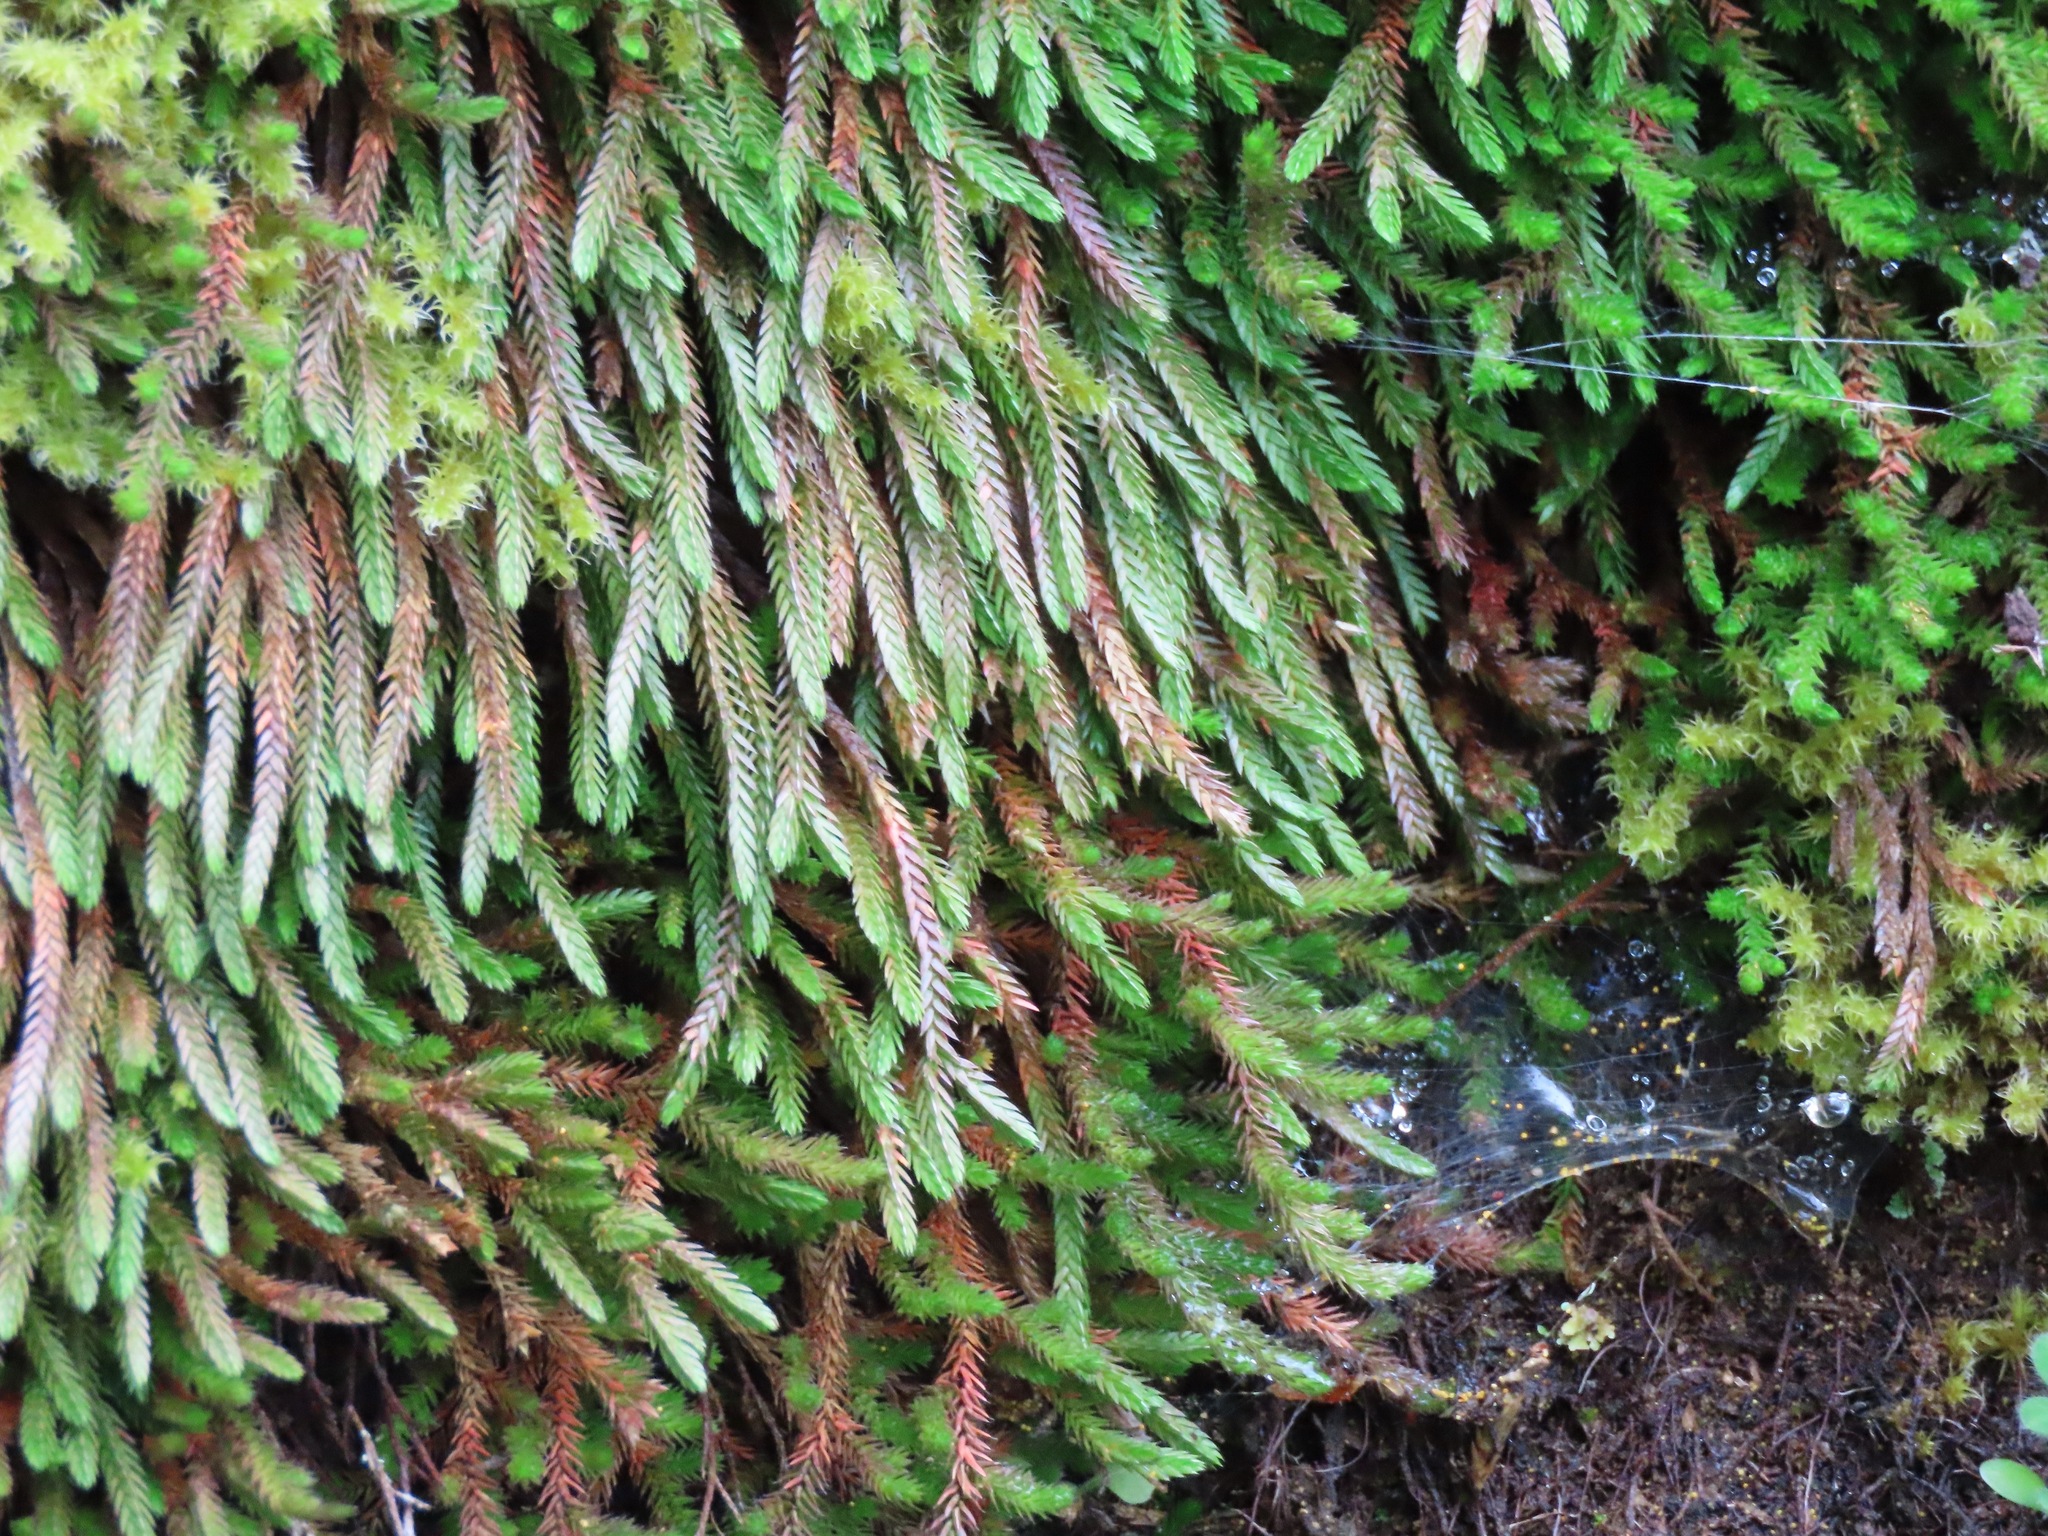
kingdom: Plantae
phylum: Tracheophyta
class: Lycopodiopsida
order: Selaginellales
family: Selaginellaceae
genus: Selaginella
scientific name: Selaginella wallacei
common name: Wallace's selaginella
